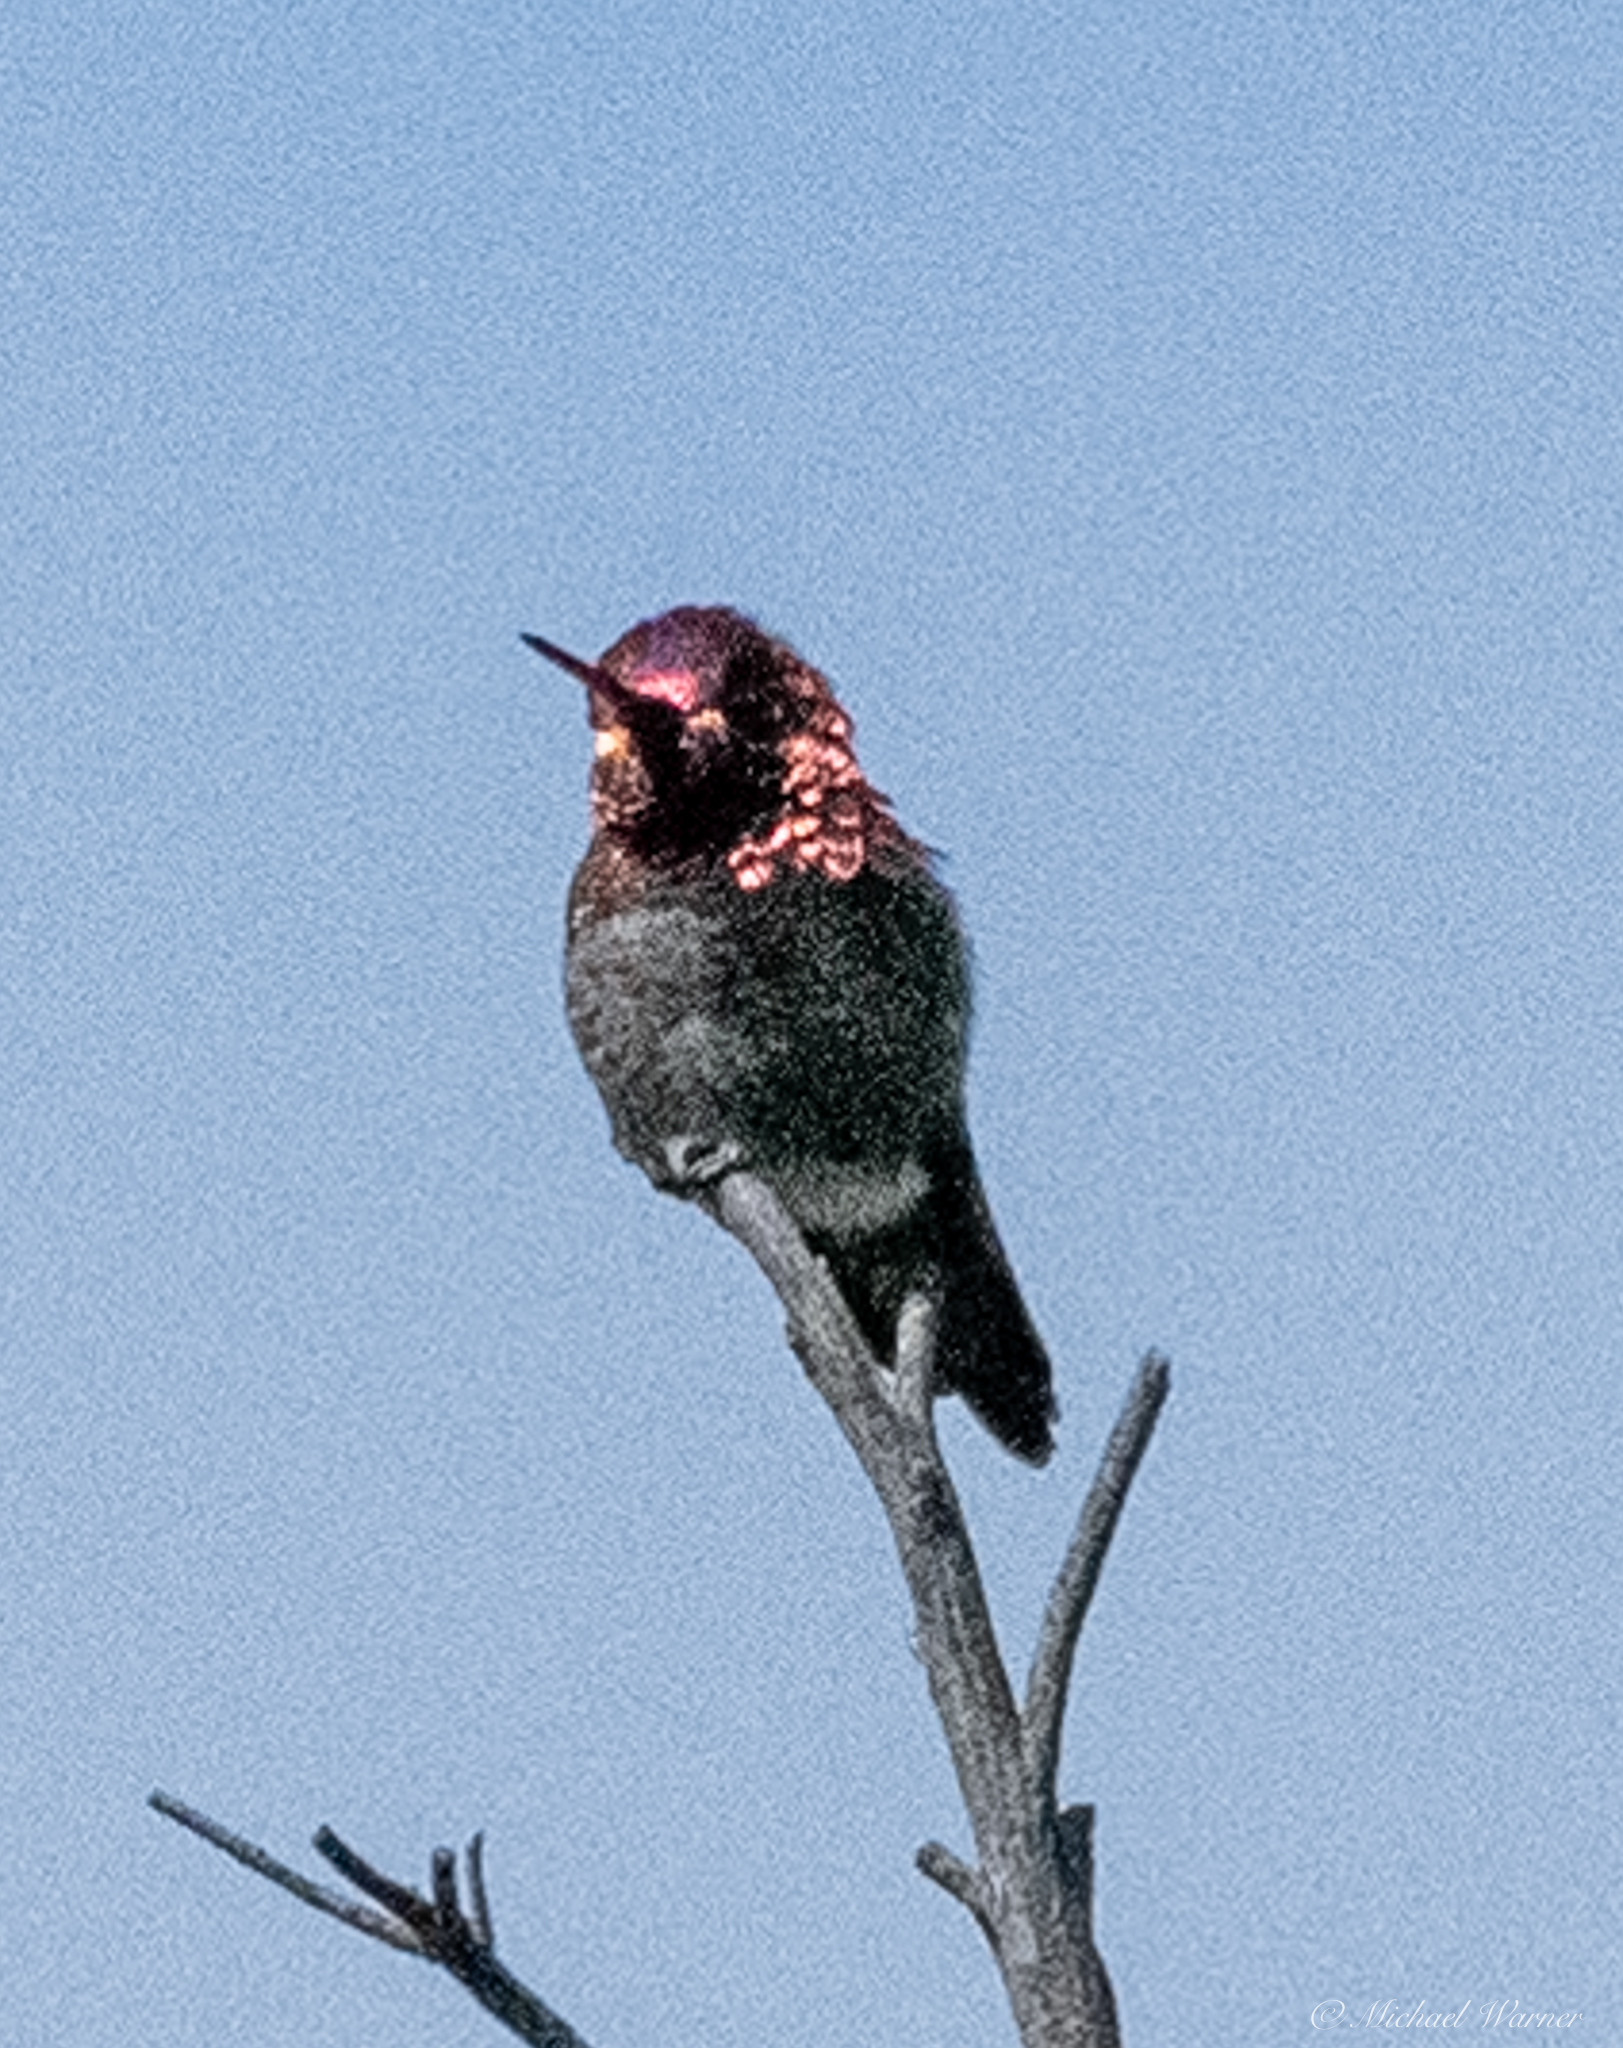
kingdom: Animalia
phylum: Chordata
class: Aves
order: Apodiformes
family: Trochilidae
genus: Calypte
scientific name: Calypte anna
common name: Anna's hummingbird
